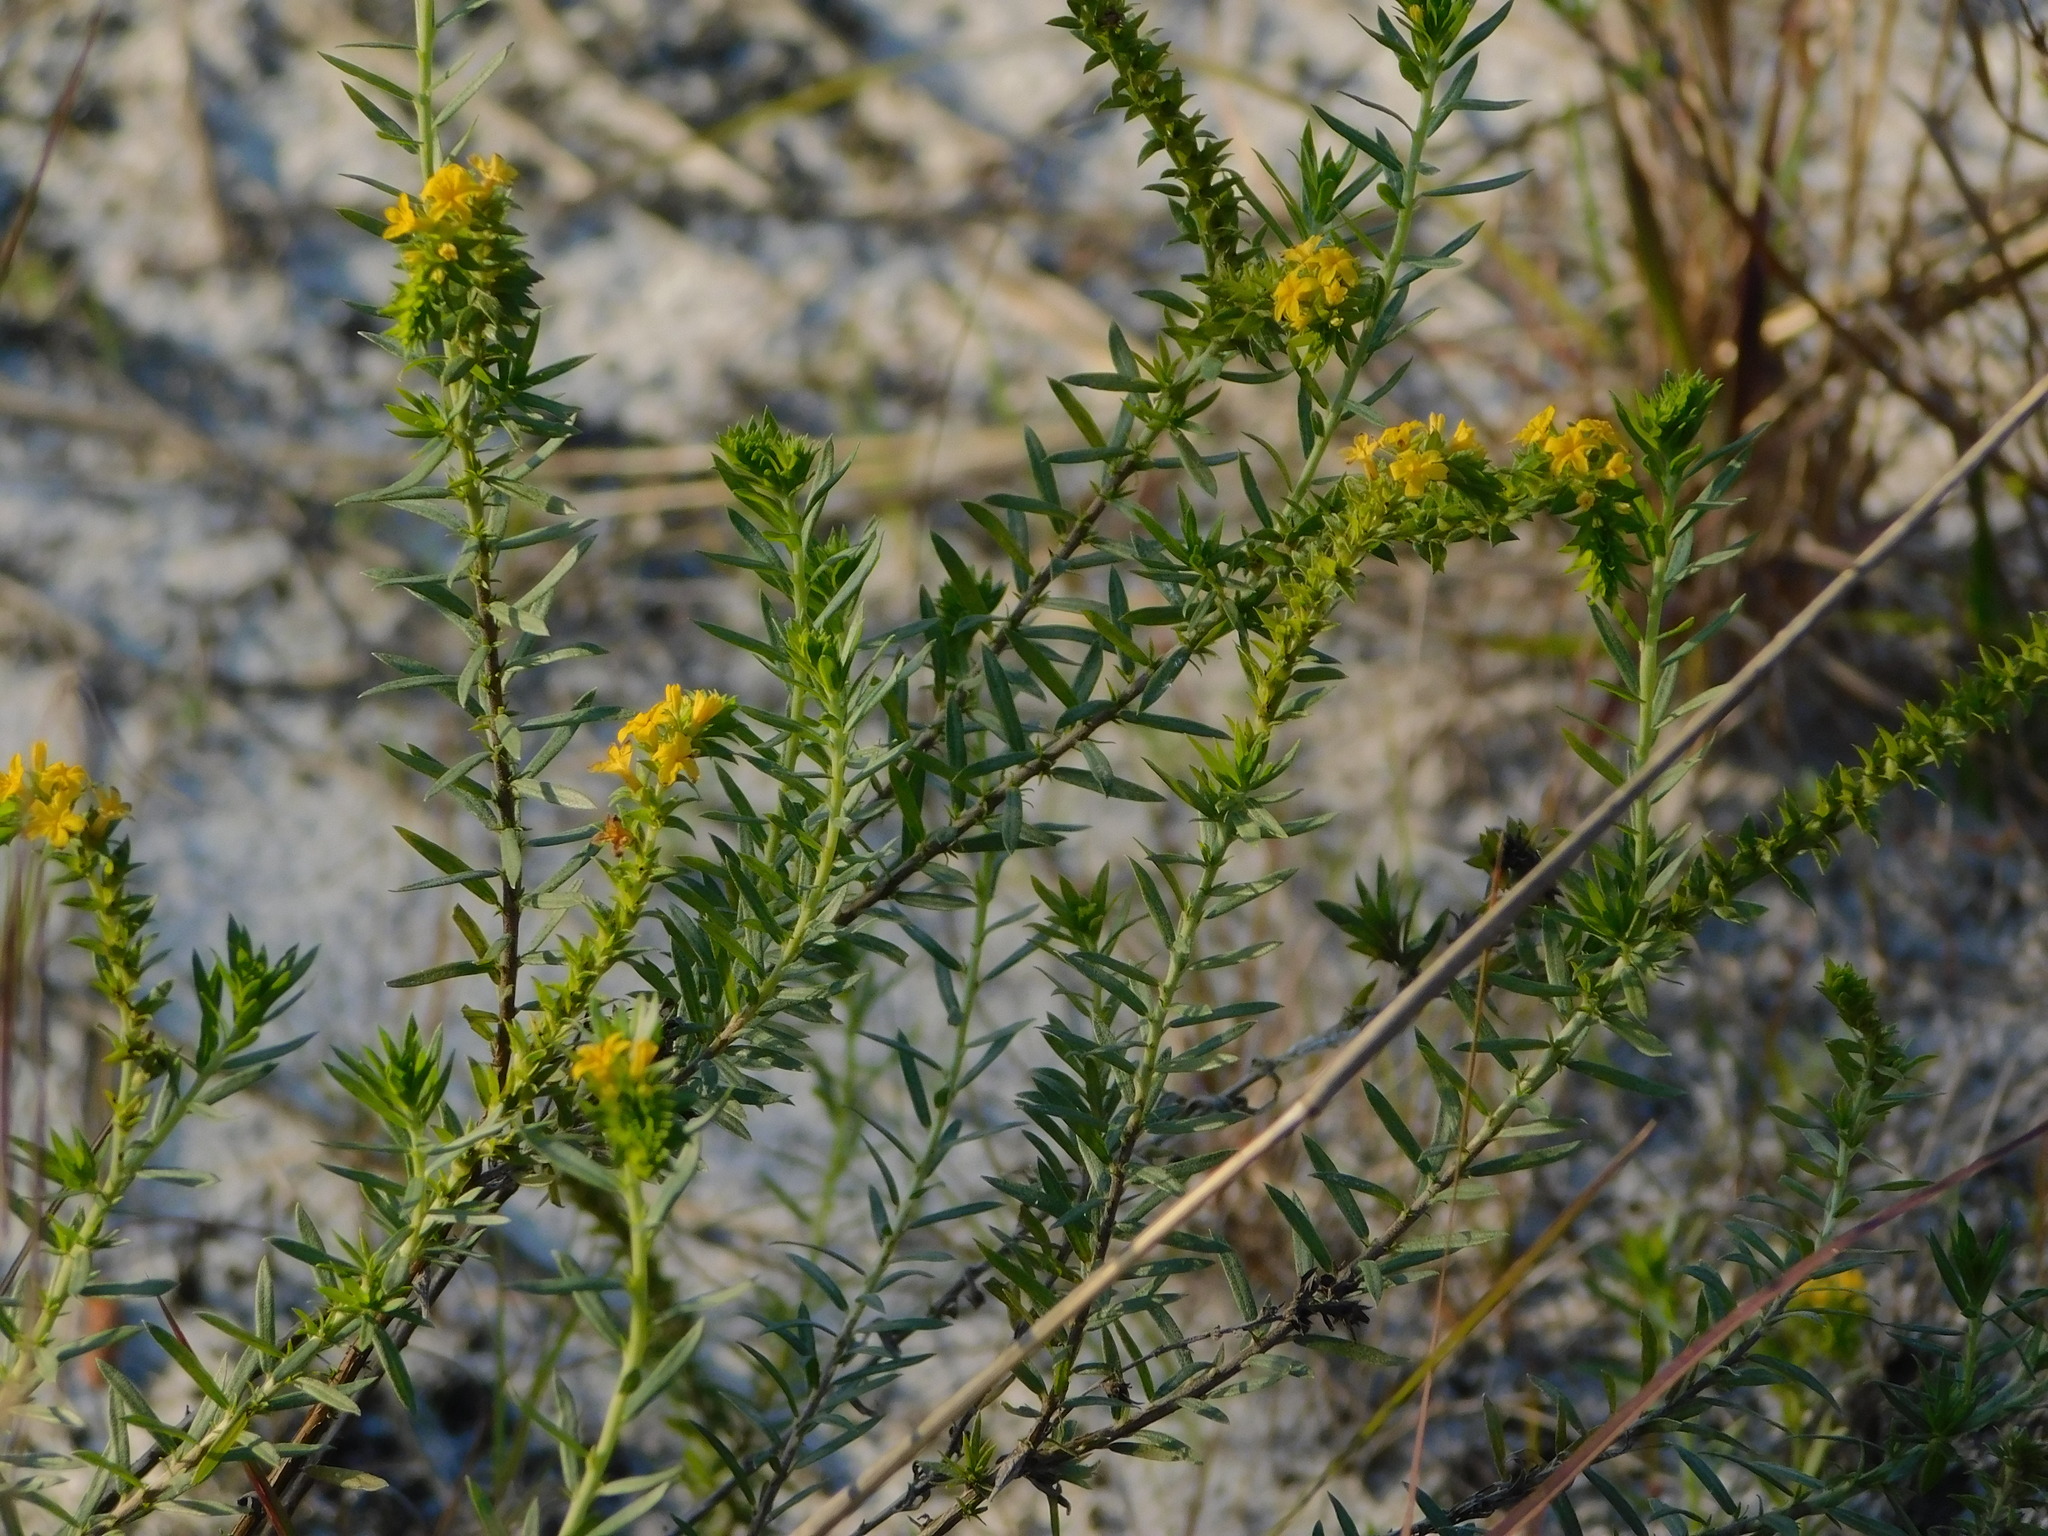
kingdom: Plantae
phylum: Tracheophyta
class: Magnoliopsida
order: Boraginales
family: Heliotropiaceae
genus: Euploca
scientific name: Euploca polyphylla
